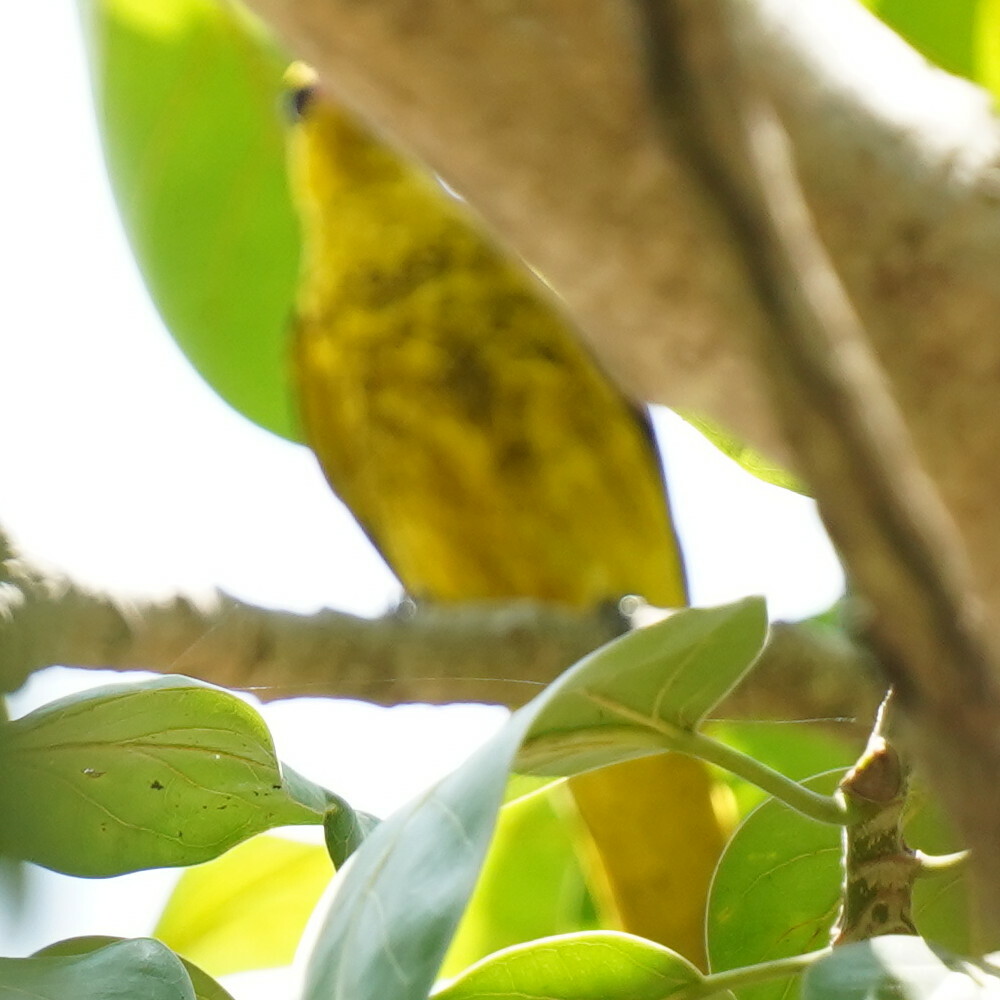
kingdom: Animalia
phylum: Chordata
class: Aves
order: Passeriformes
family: Oriolidae
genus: Oriolus
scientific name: Oriolus kundoo
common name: Indian golden oriole
